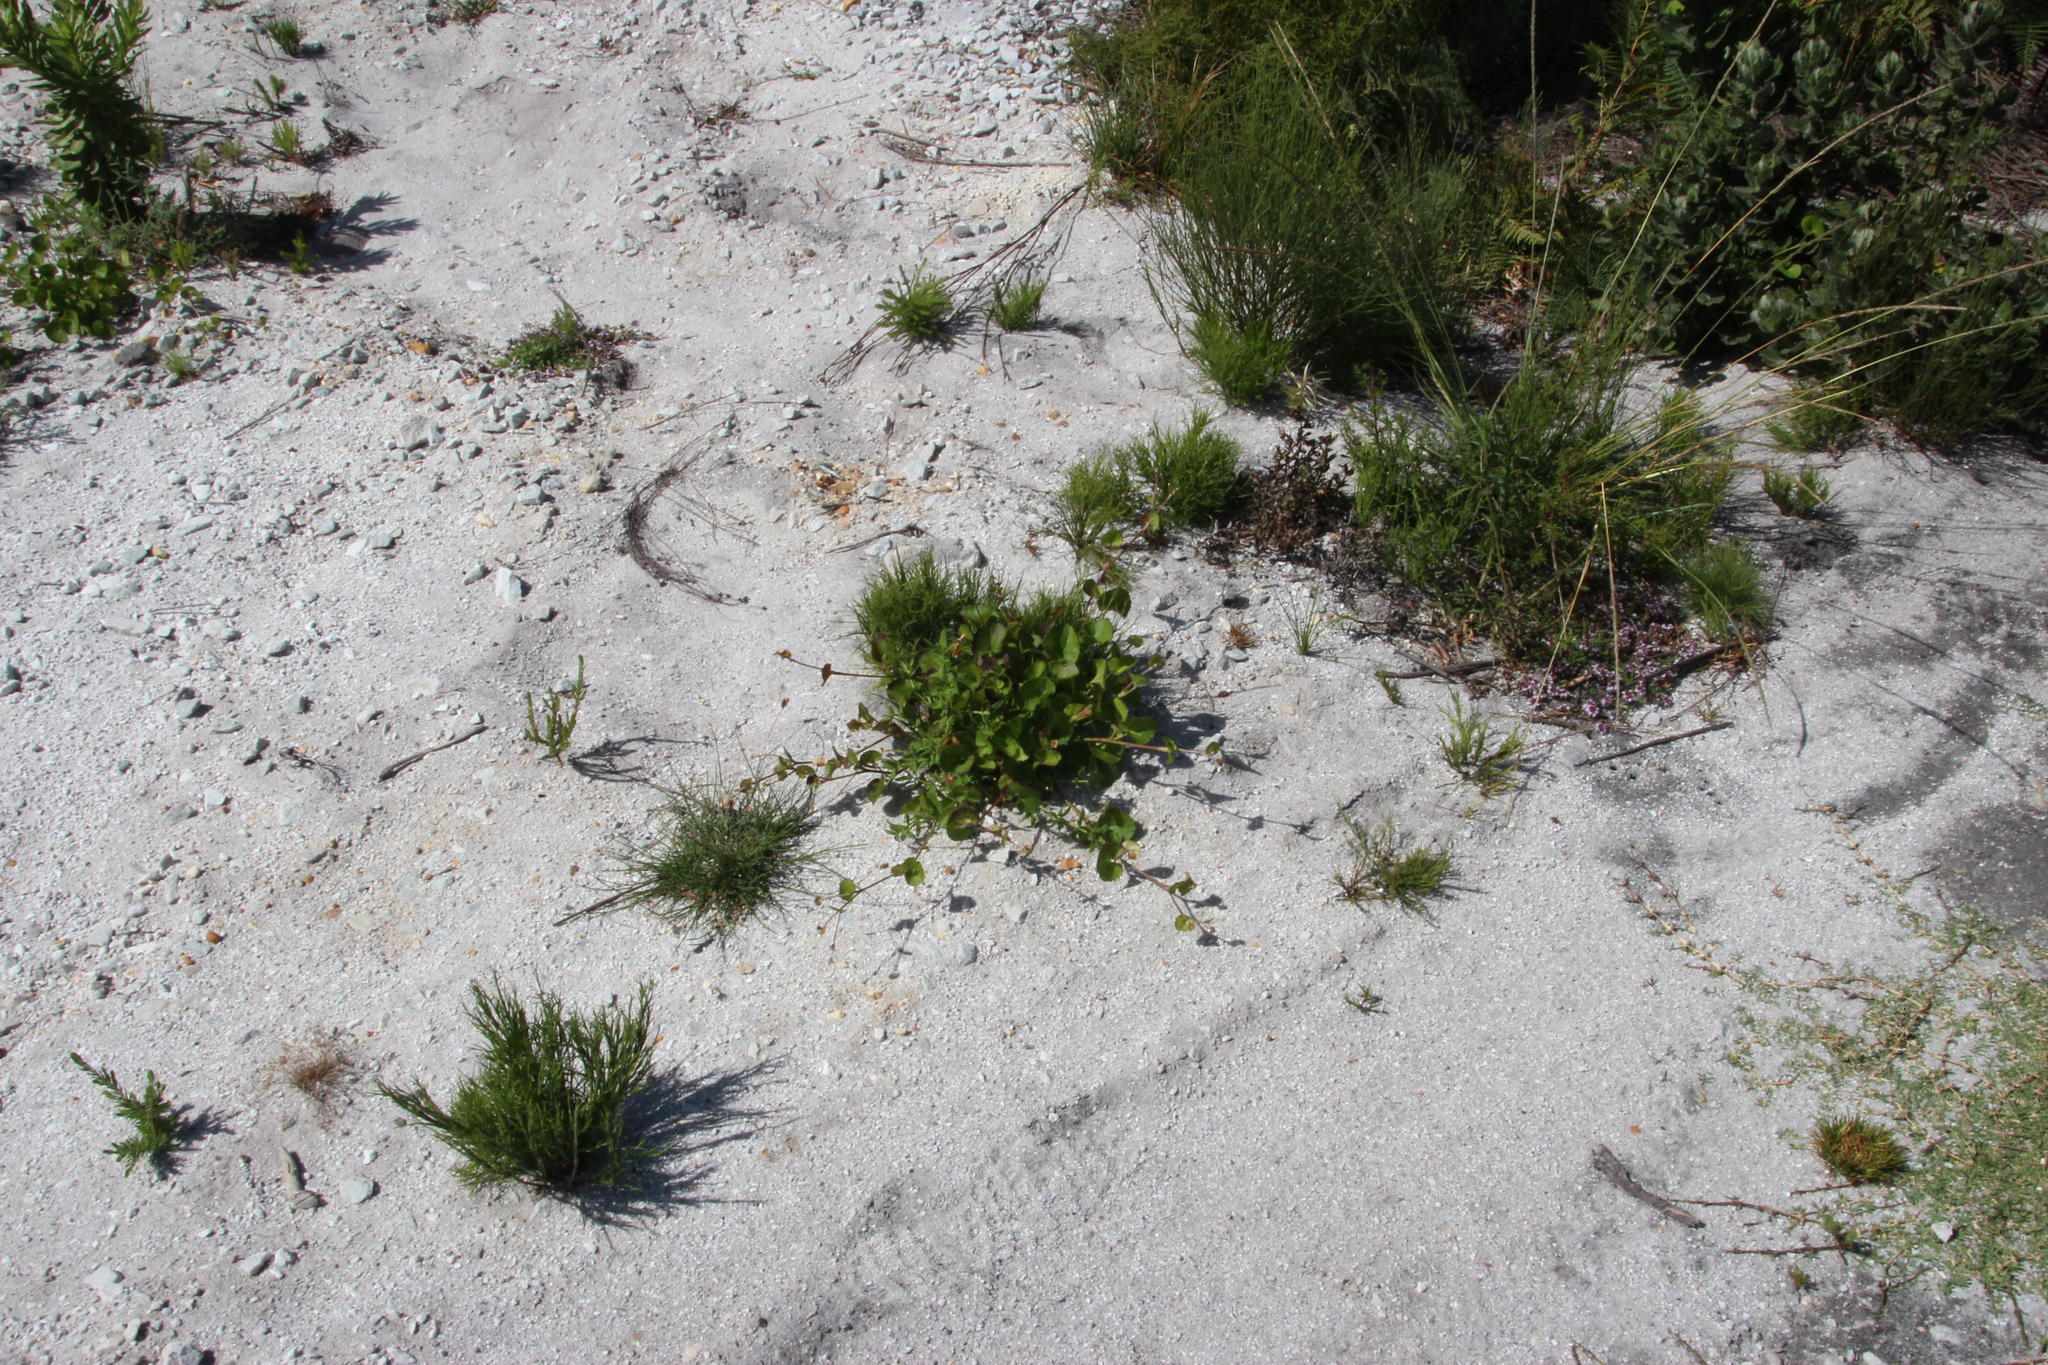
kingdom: Plantae
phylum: Tracheophyta
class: Magnoliopsida
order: Apiales
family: Apiaceae
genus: Centella
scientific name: Centella eriantha
